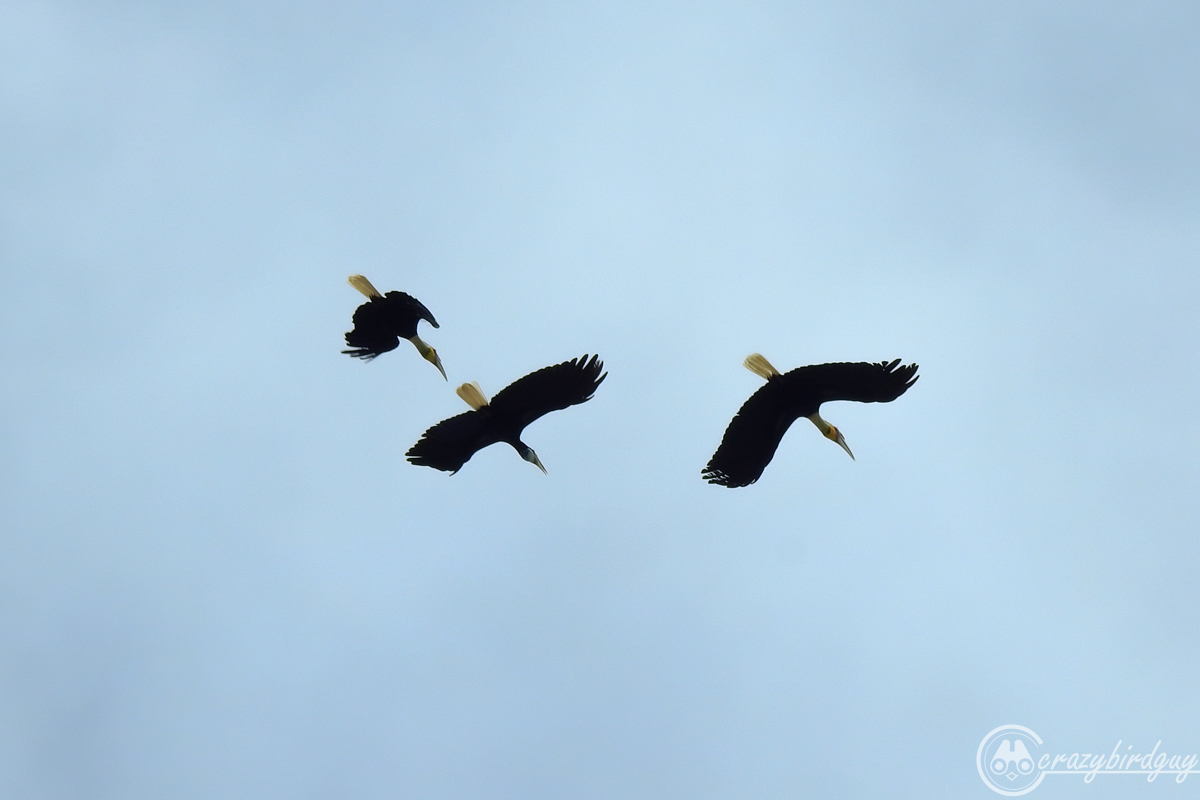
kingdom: Animalia
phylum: Chordata
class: Aves
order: Bucerotiformes
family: Bucerotidae
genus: Rhyticeros
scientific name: Rhyticeros undulatus
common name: Wreathed hornbill
